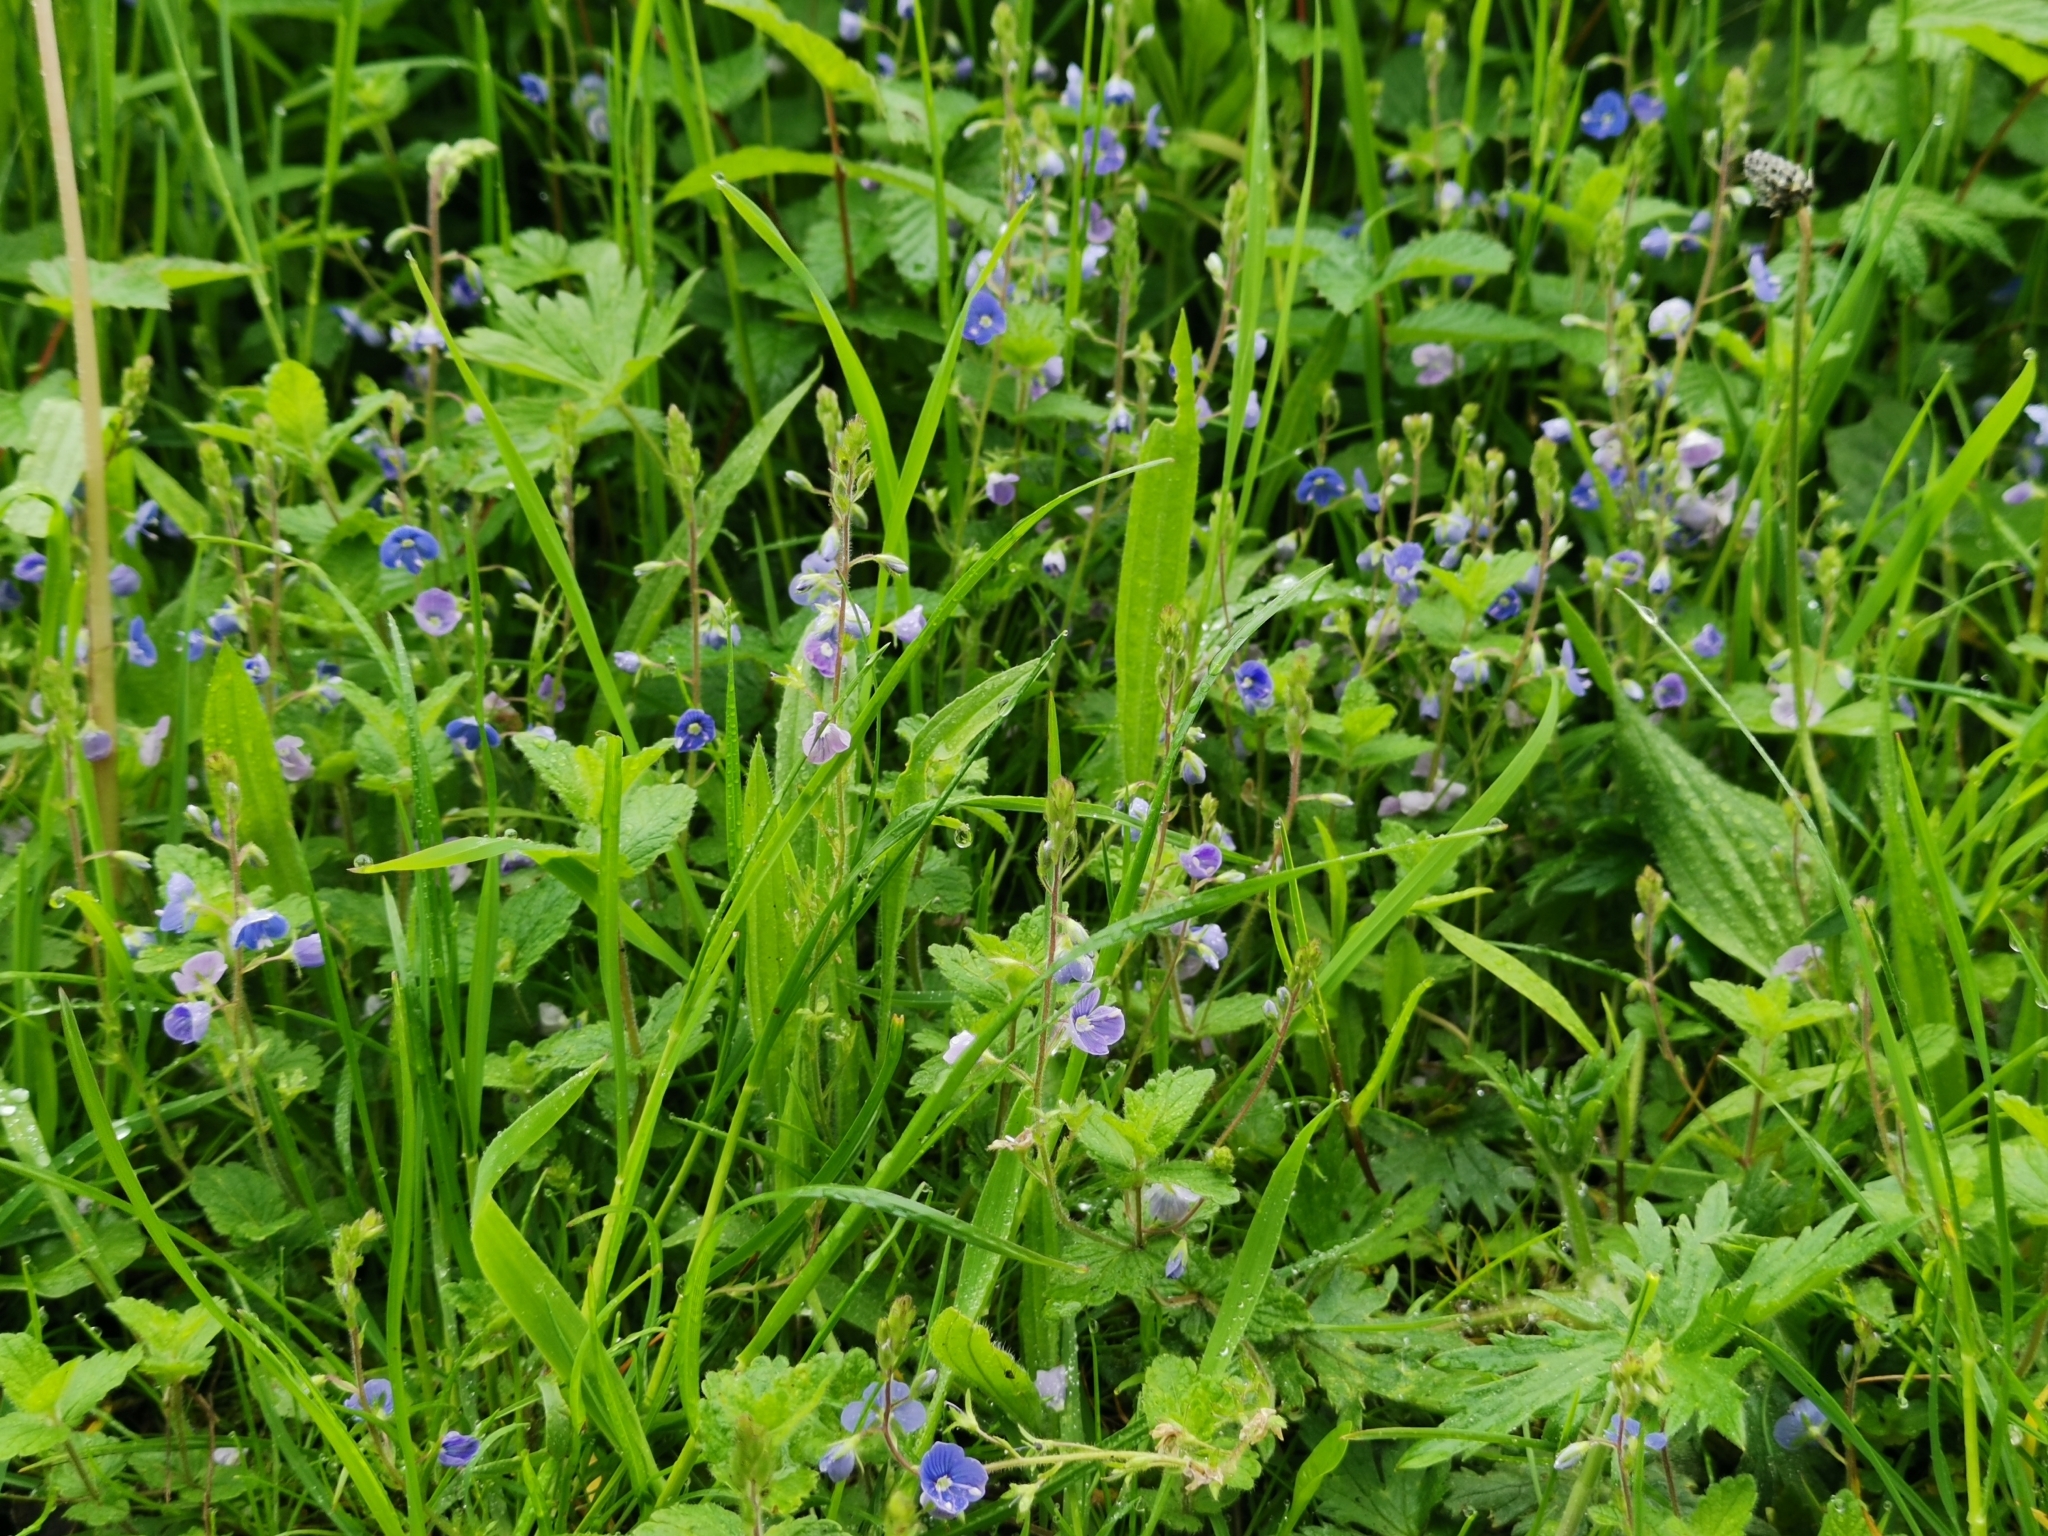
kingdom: Plantae
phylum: Tracheophyta
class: Magnoliopsida
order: Lamiales
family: Plantaginaceae
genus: Veronica
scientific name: Veronica chamaedrys
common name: Germander speedwell
